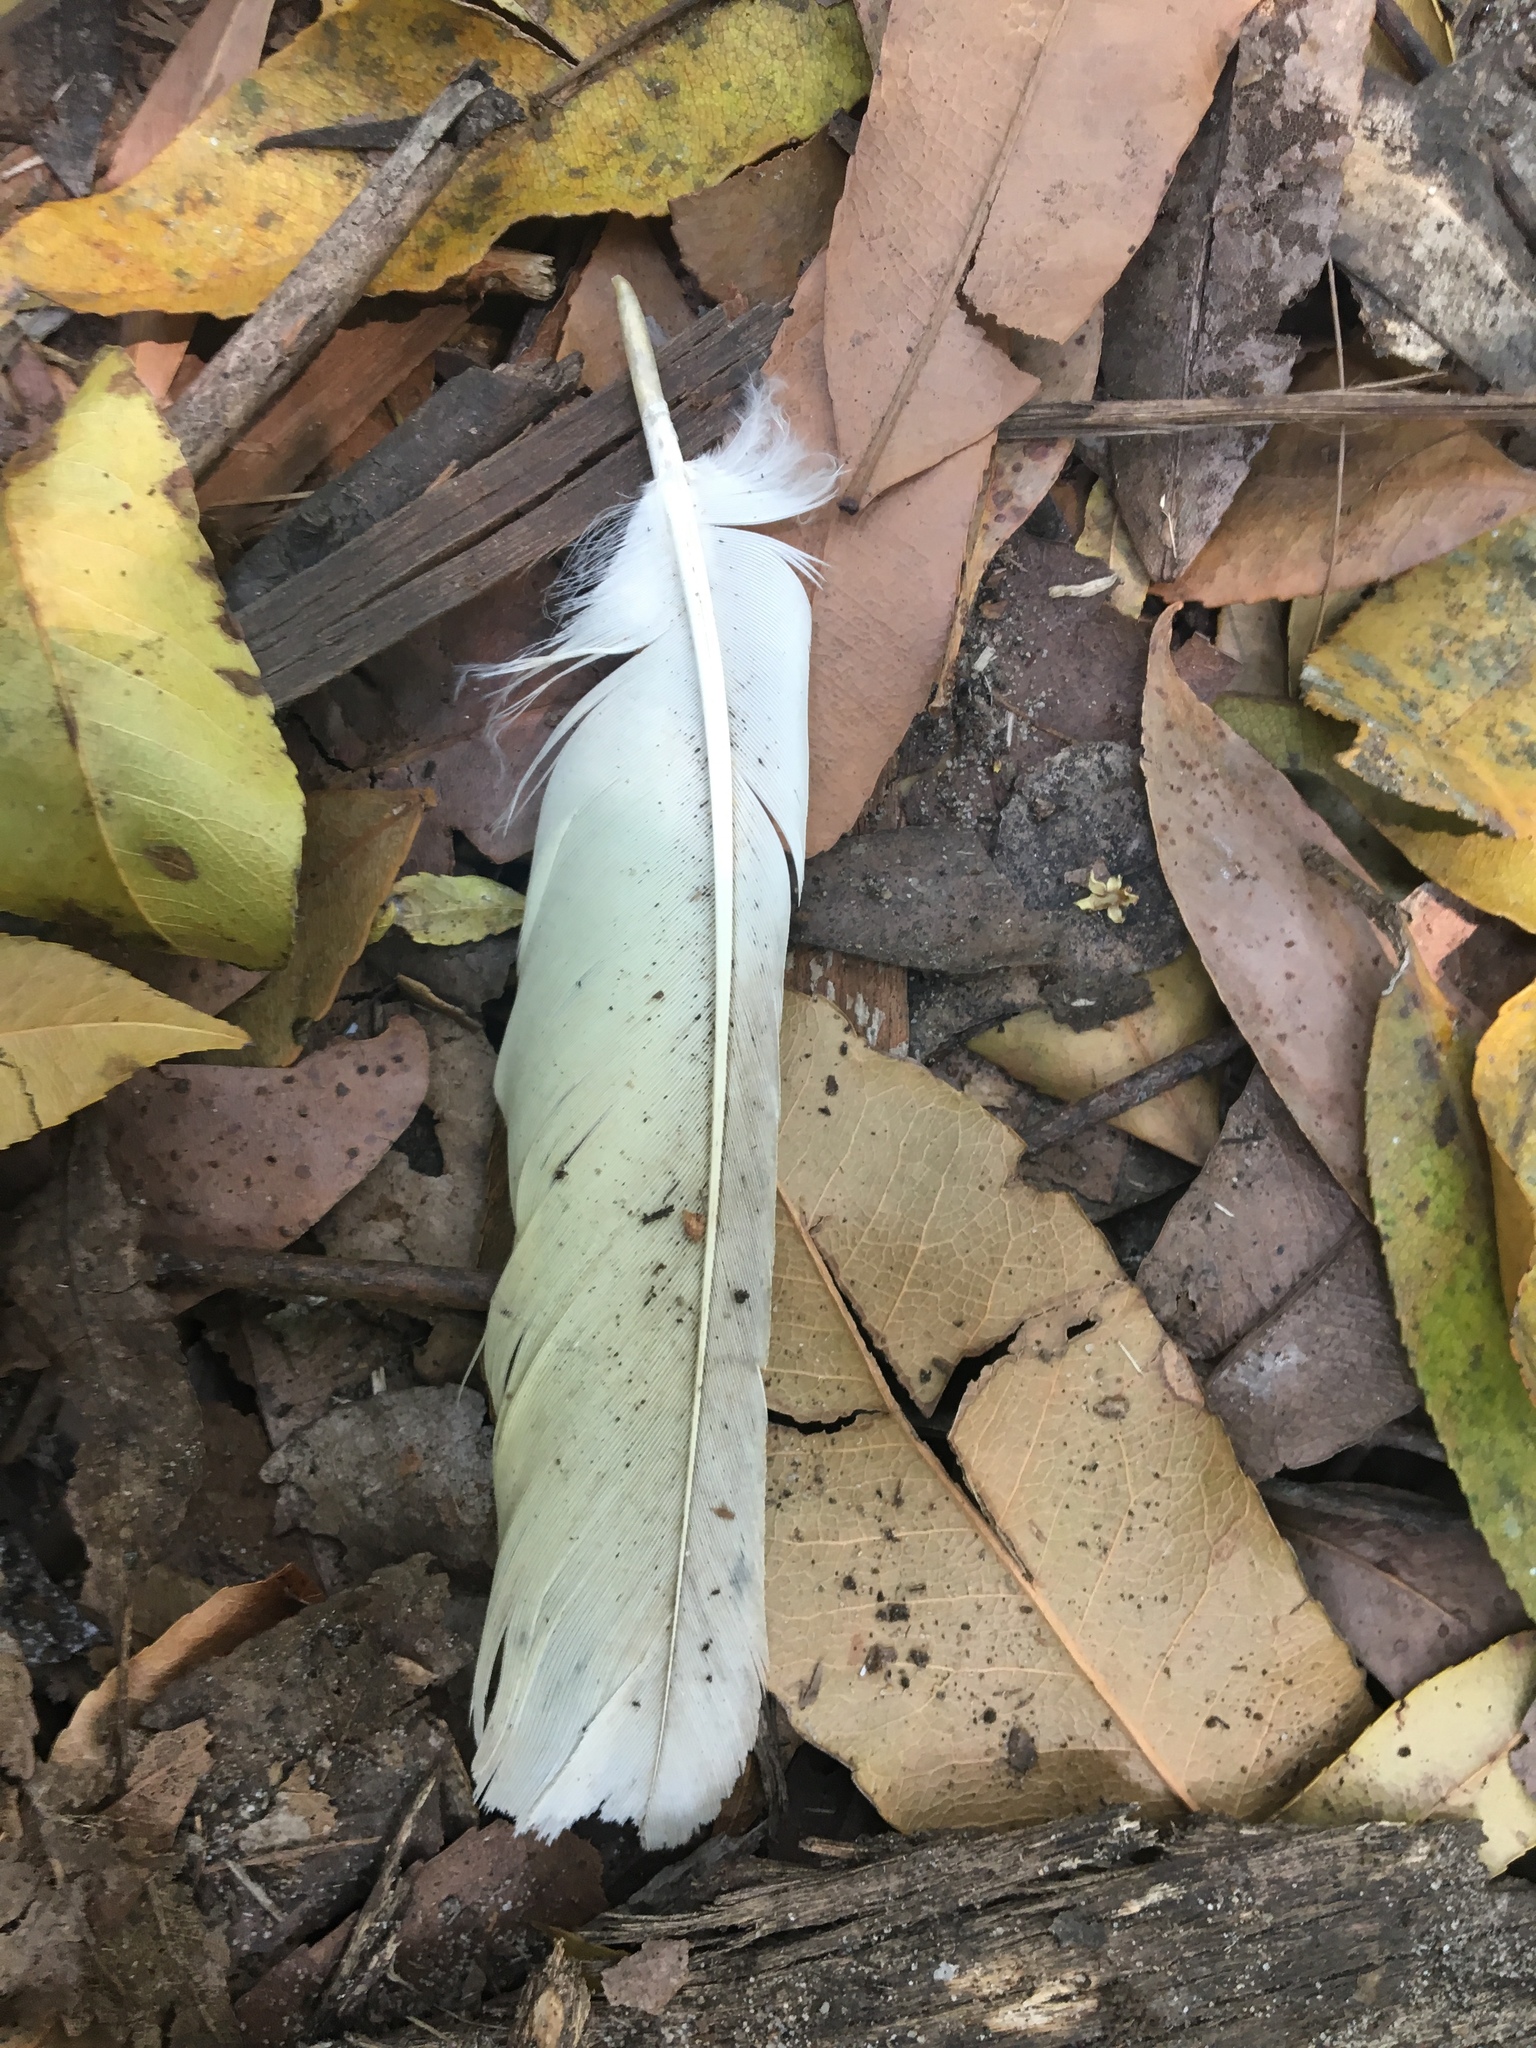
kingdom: Animalia
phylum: Chordata
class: Aves
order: Psittaciformes
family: Psittacidae
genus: Cacatua
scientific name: Cacatua galerita
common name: Sulphur-crested cockatoo
